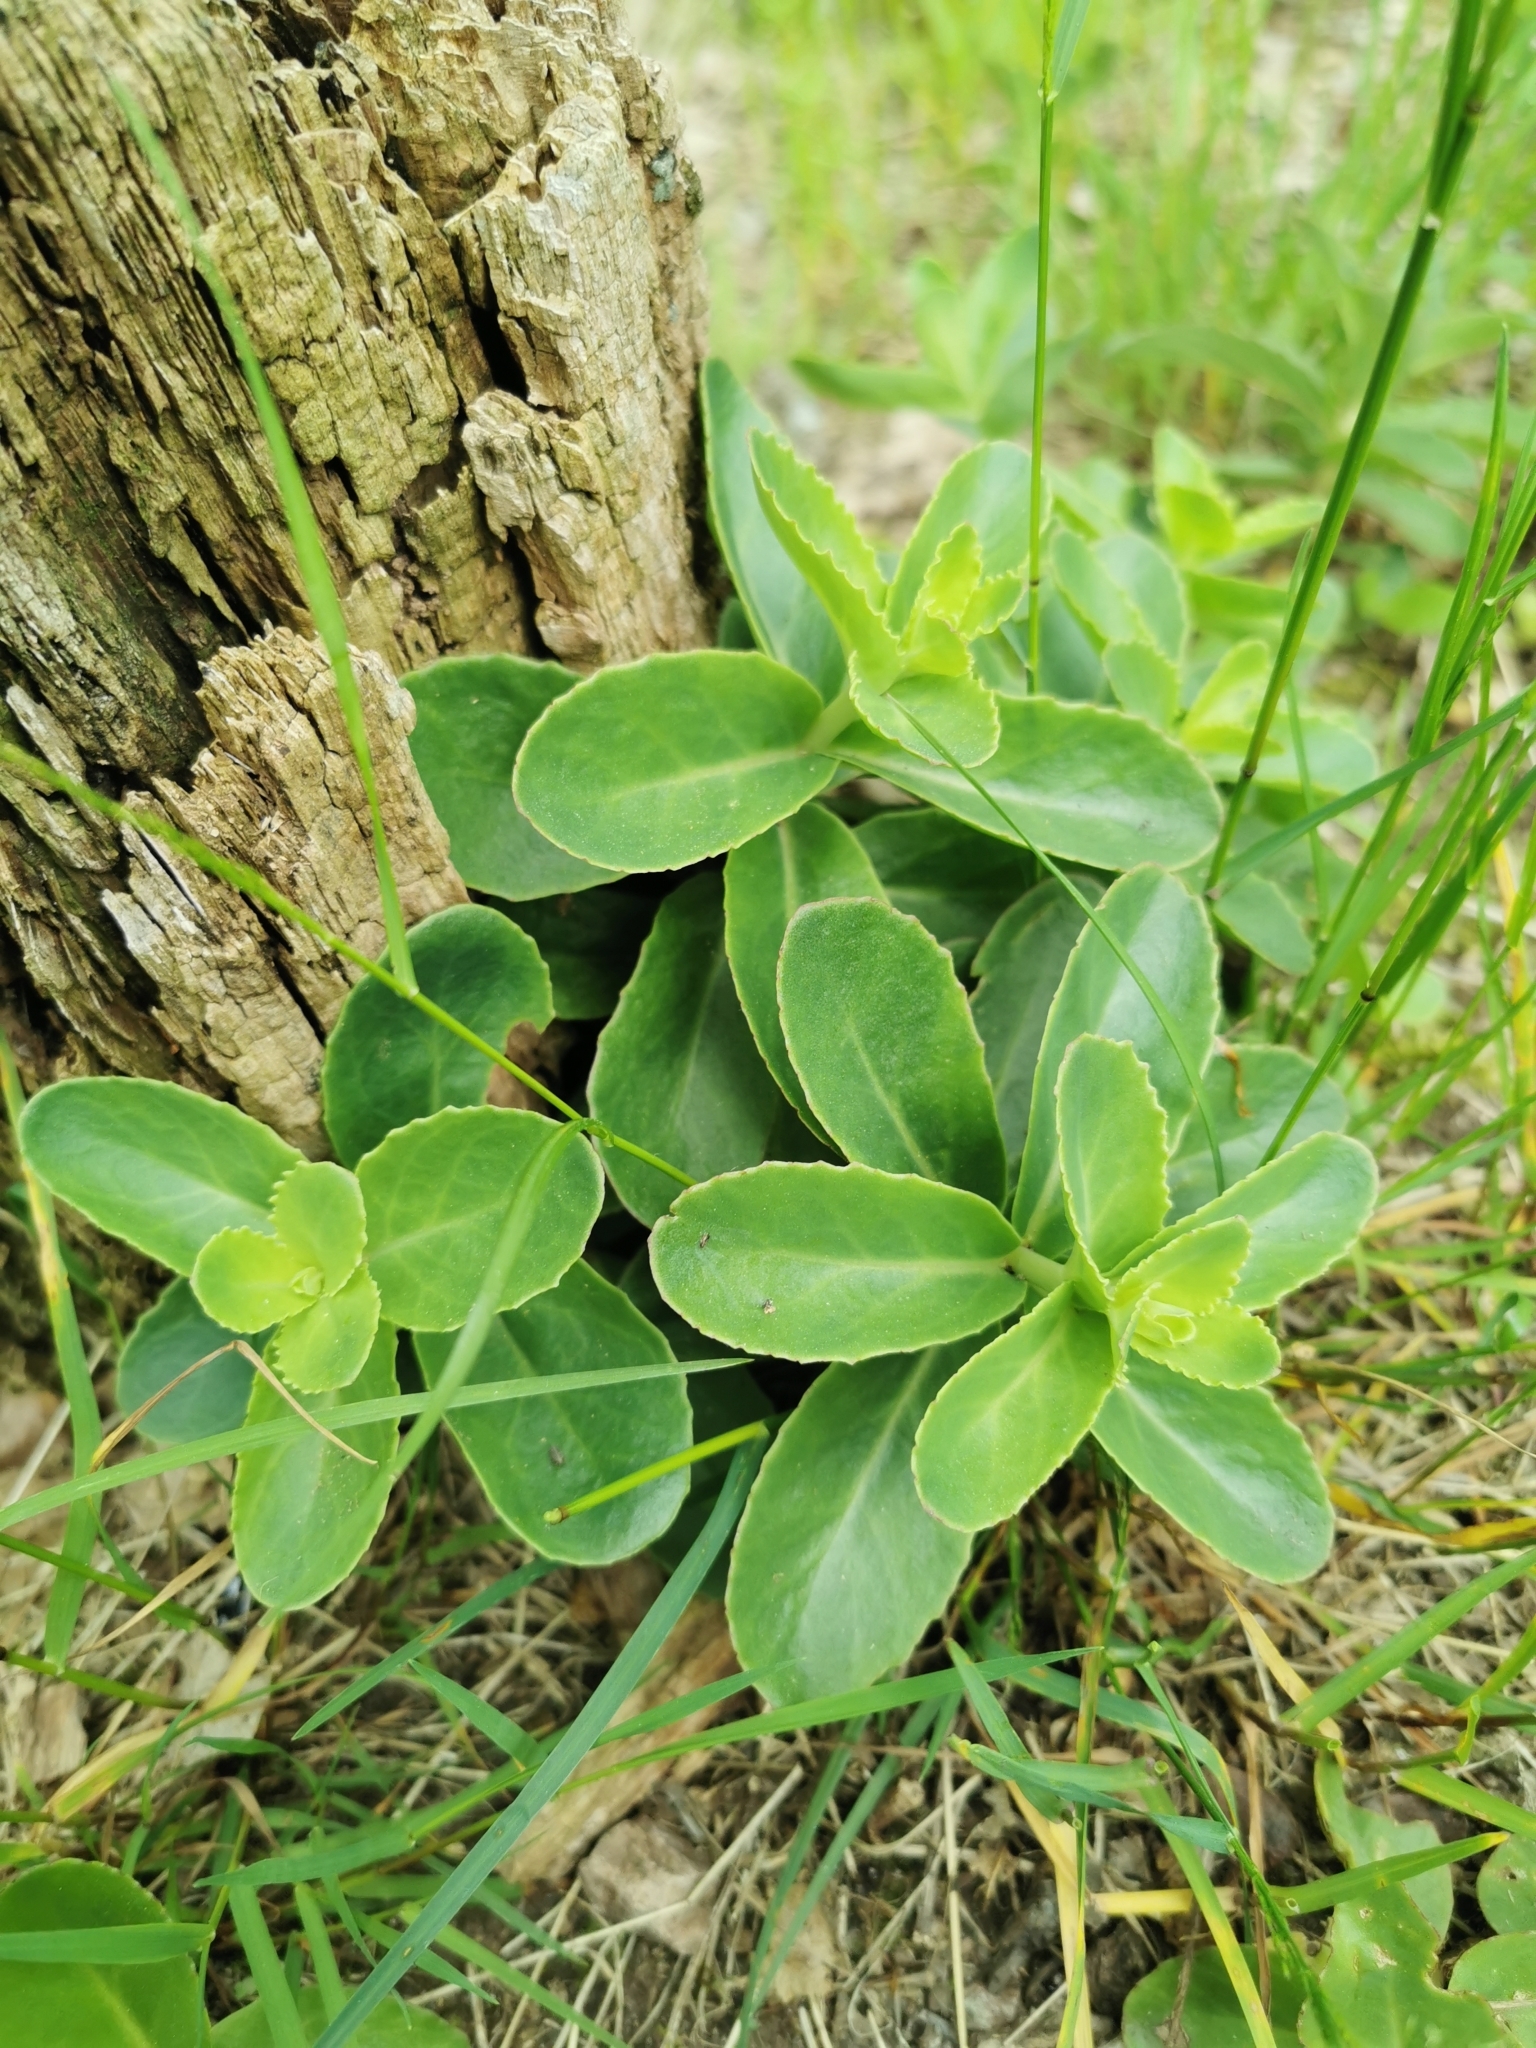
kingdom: Plantae
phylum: Tracheophyta
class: Magnoliopsida
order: Saxifragales
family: Crassulaceae
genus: Hylotelephium
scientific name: Hylotelephium maximum
